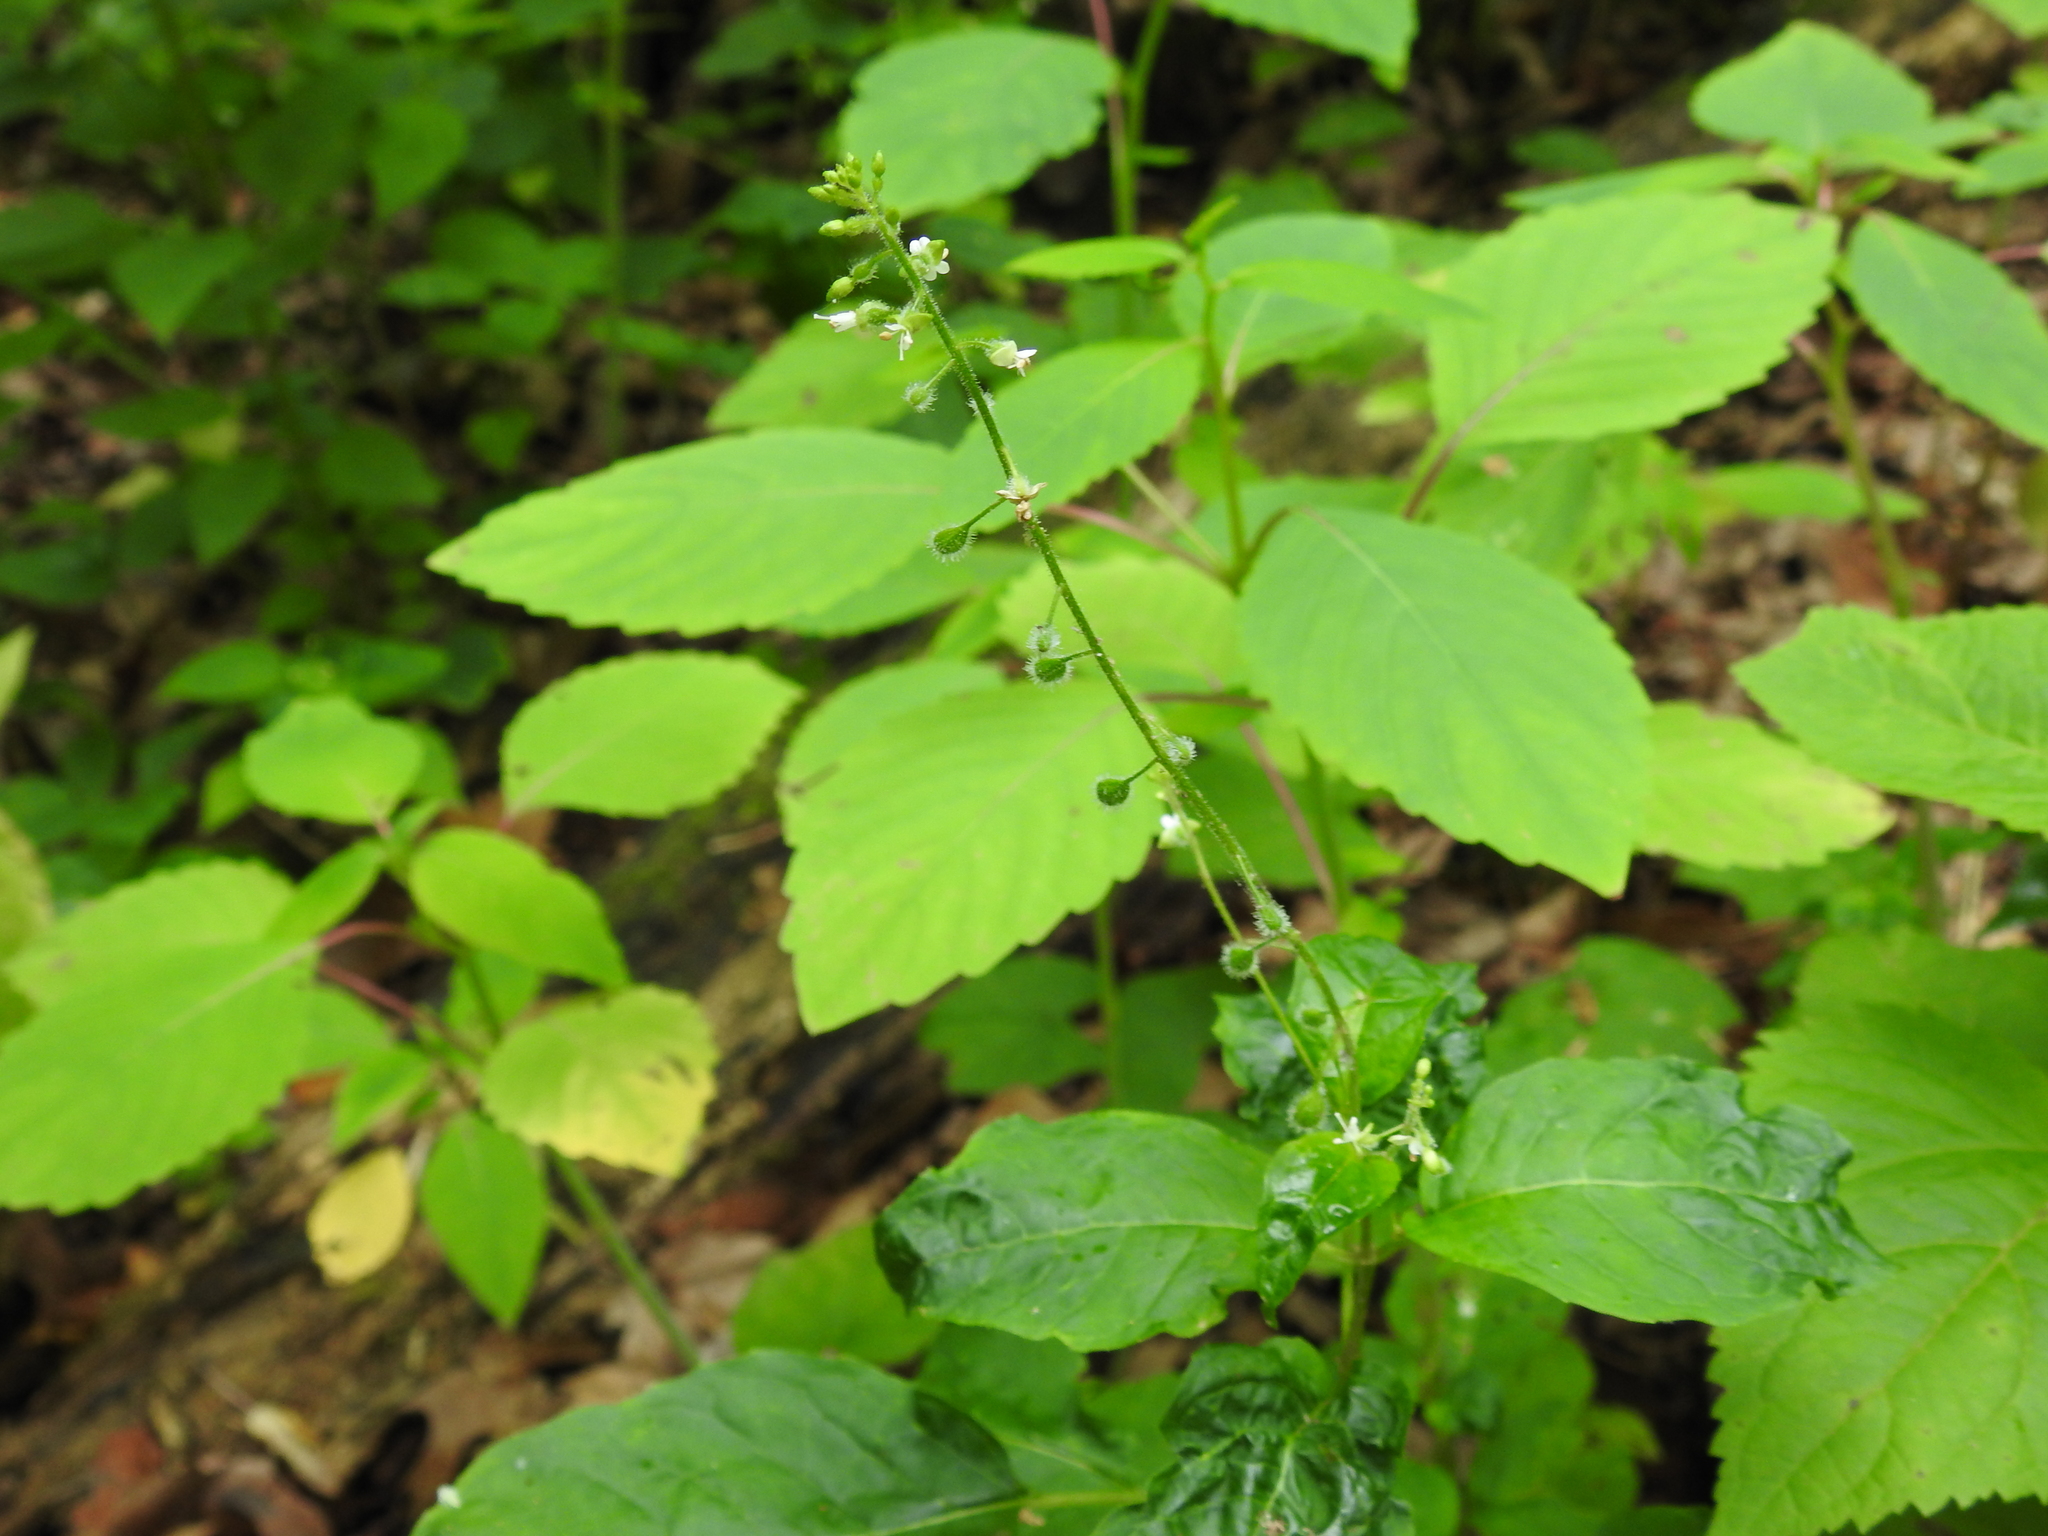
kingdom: Plantae
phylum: Tracheophyta
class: Magnoliopsida
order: Myrtales
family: Onagraceae
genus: Circaea
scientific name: Circaea canadensis
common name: Broad-leaved enchanter's nightshade
